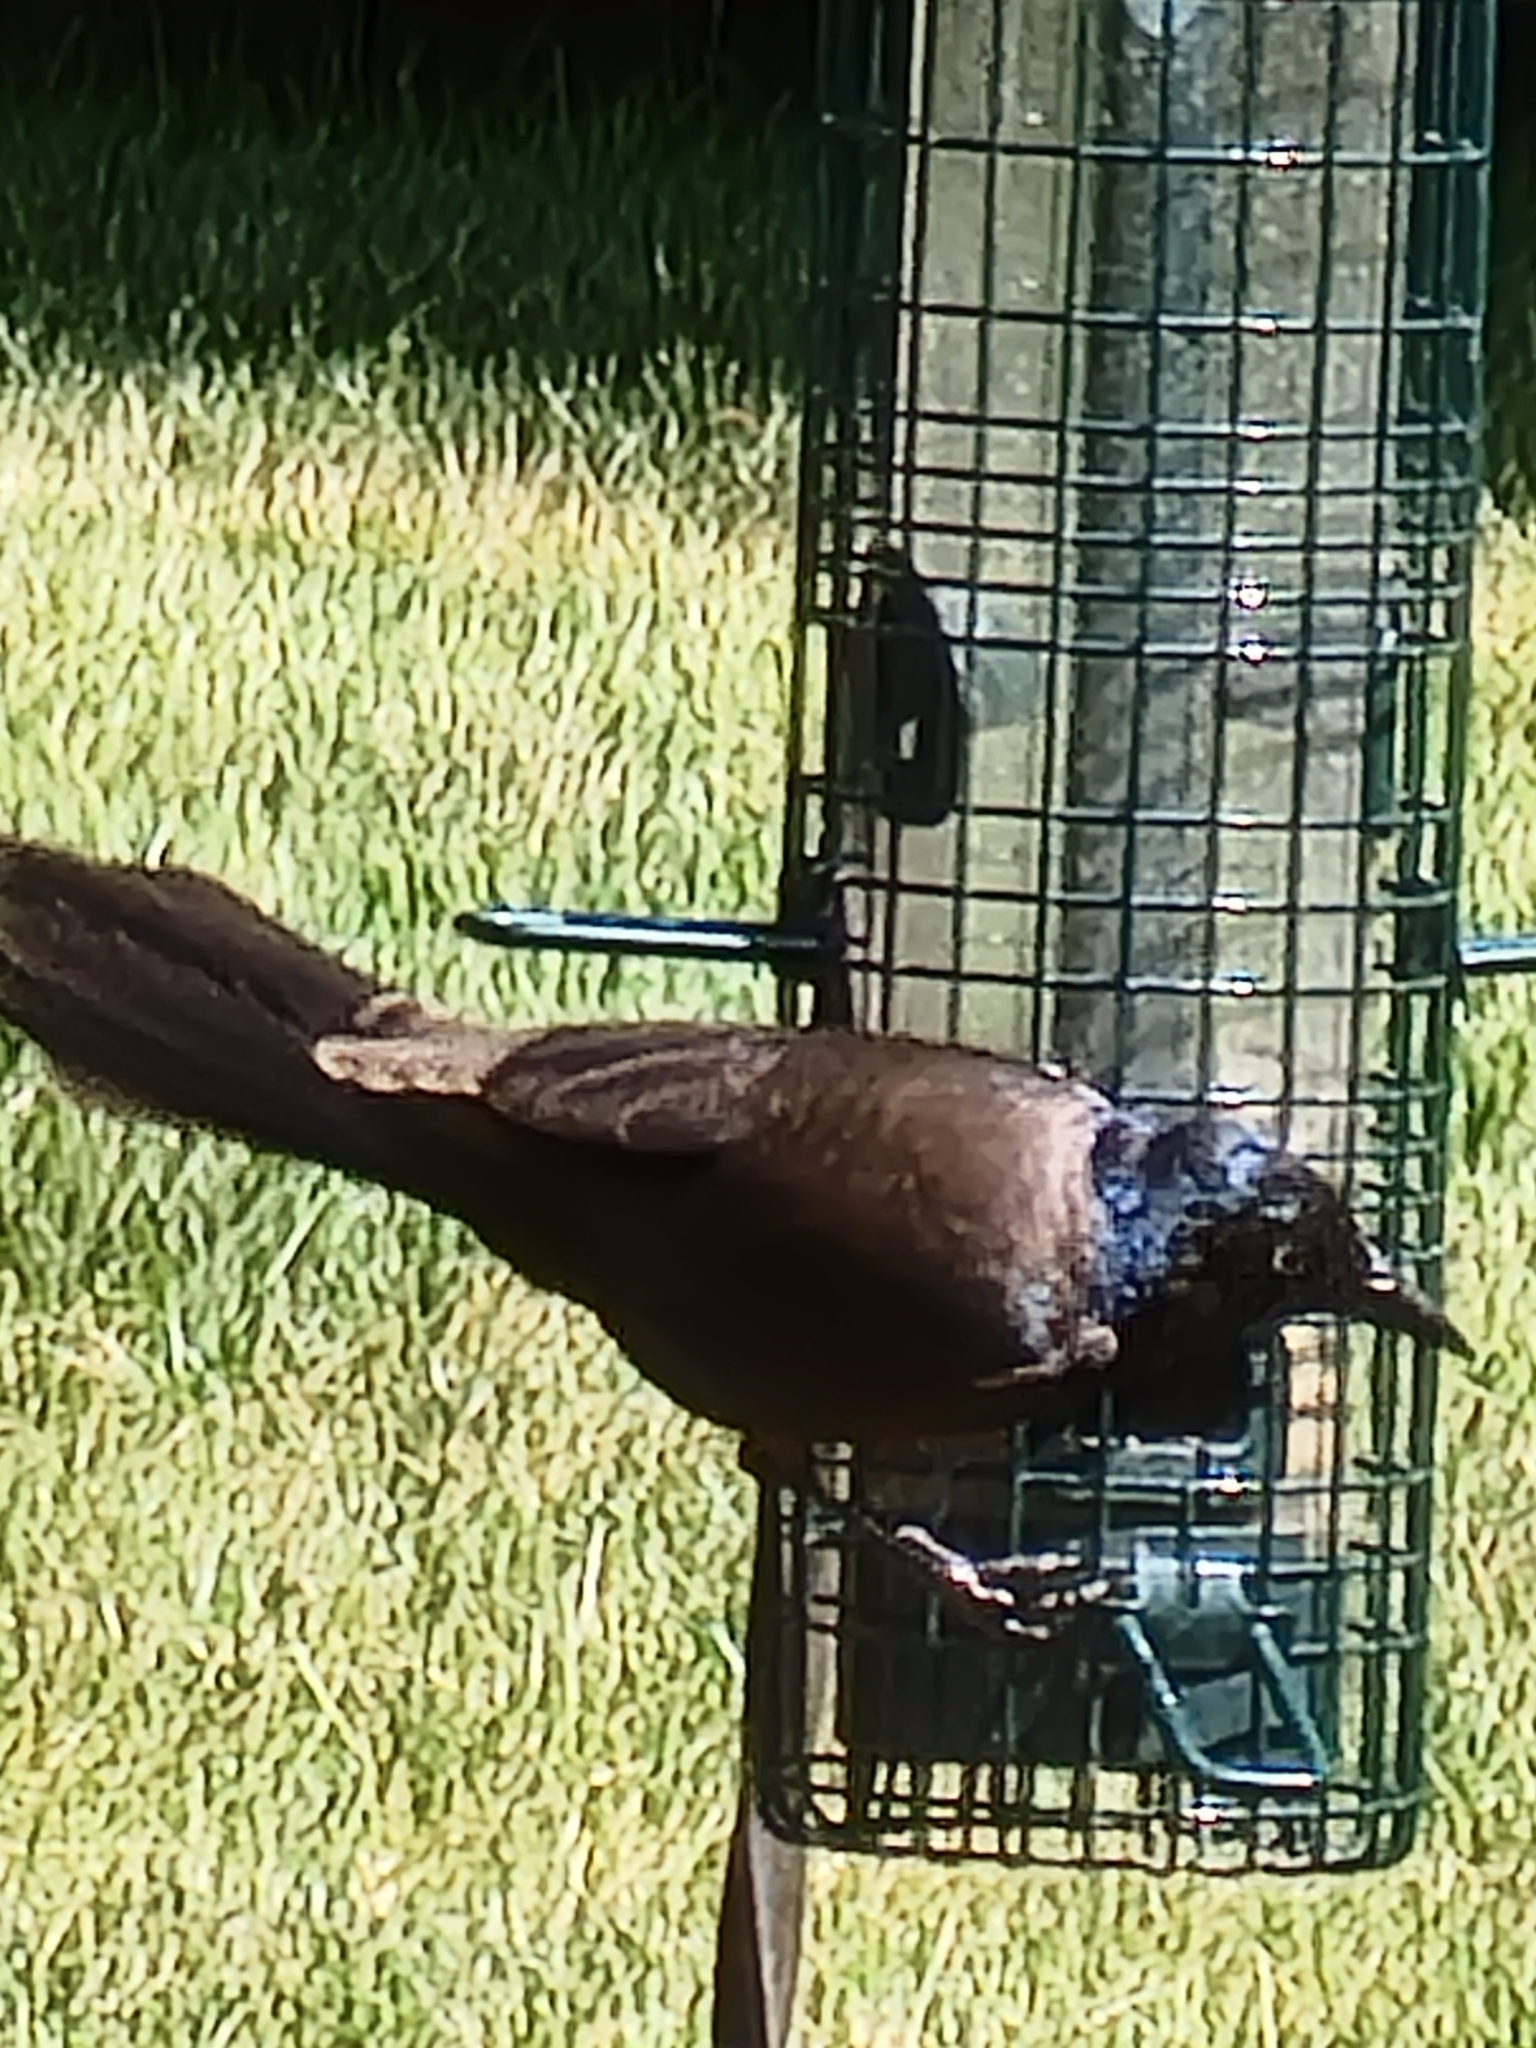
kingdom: Animalia
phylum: Chordata
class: Aves
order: Passeriformes
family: Icteridae
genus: Quiscalus
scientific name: Quiscalus quiscula
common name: Common grackle
